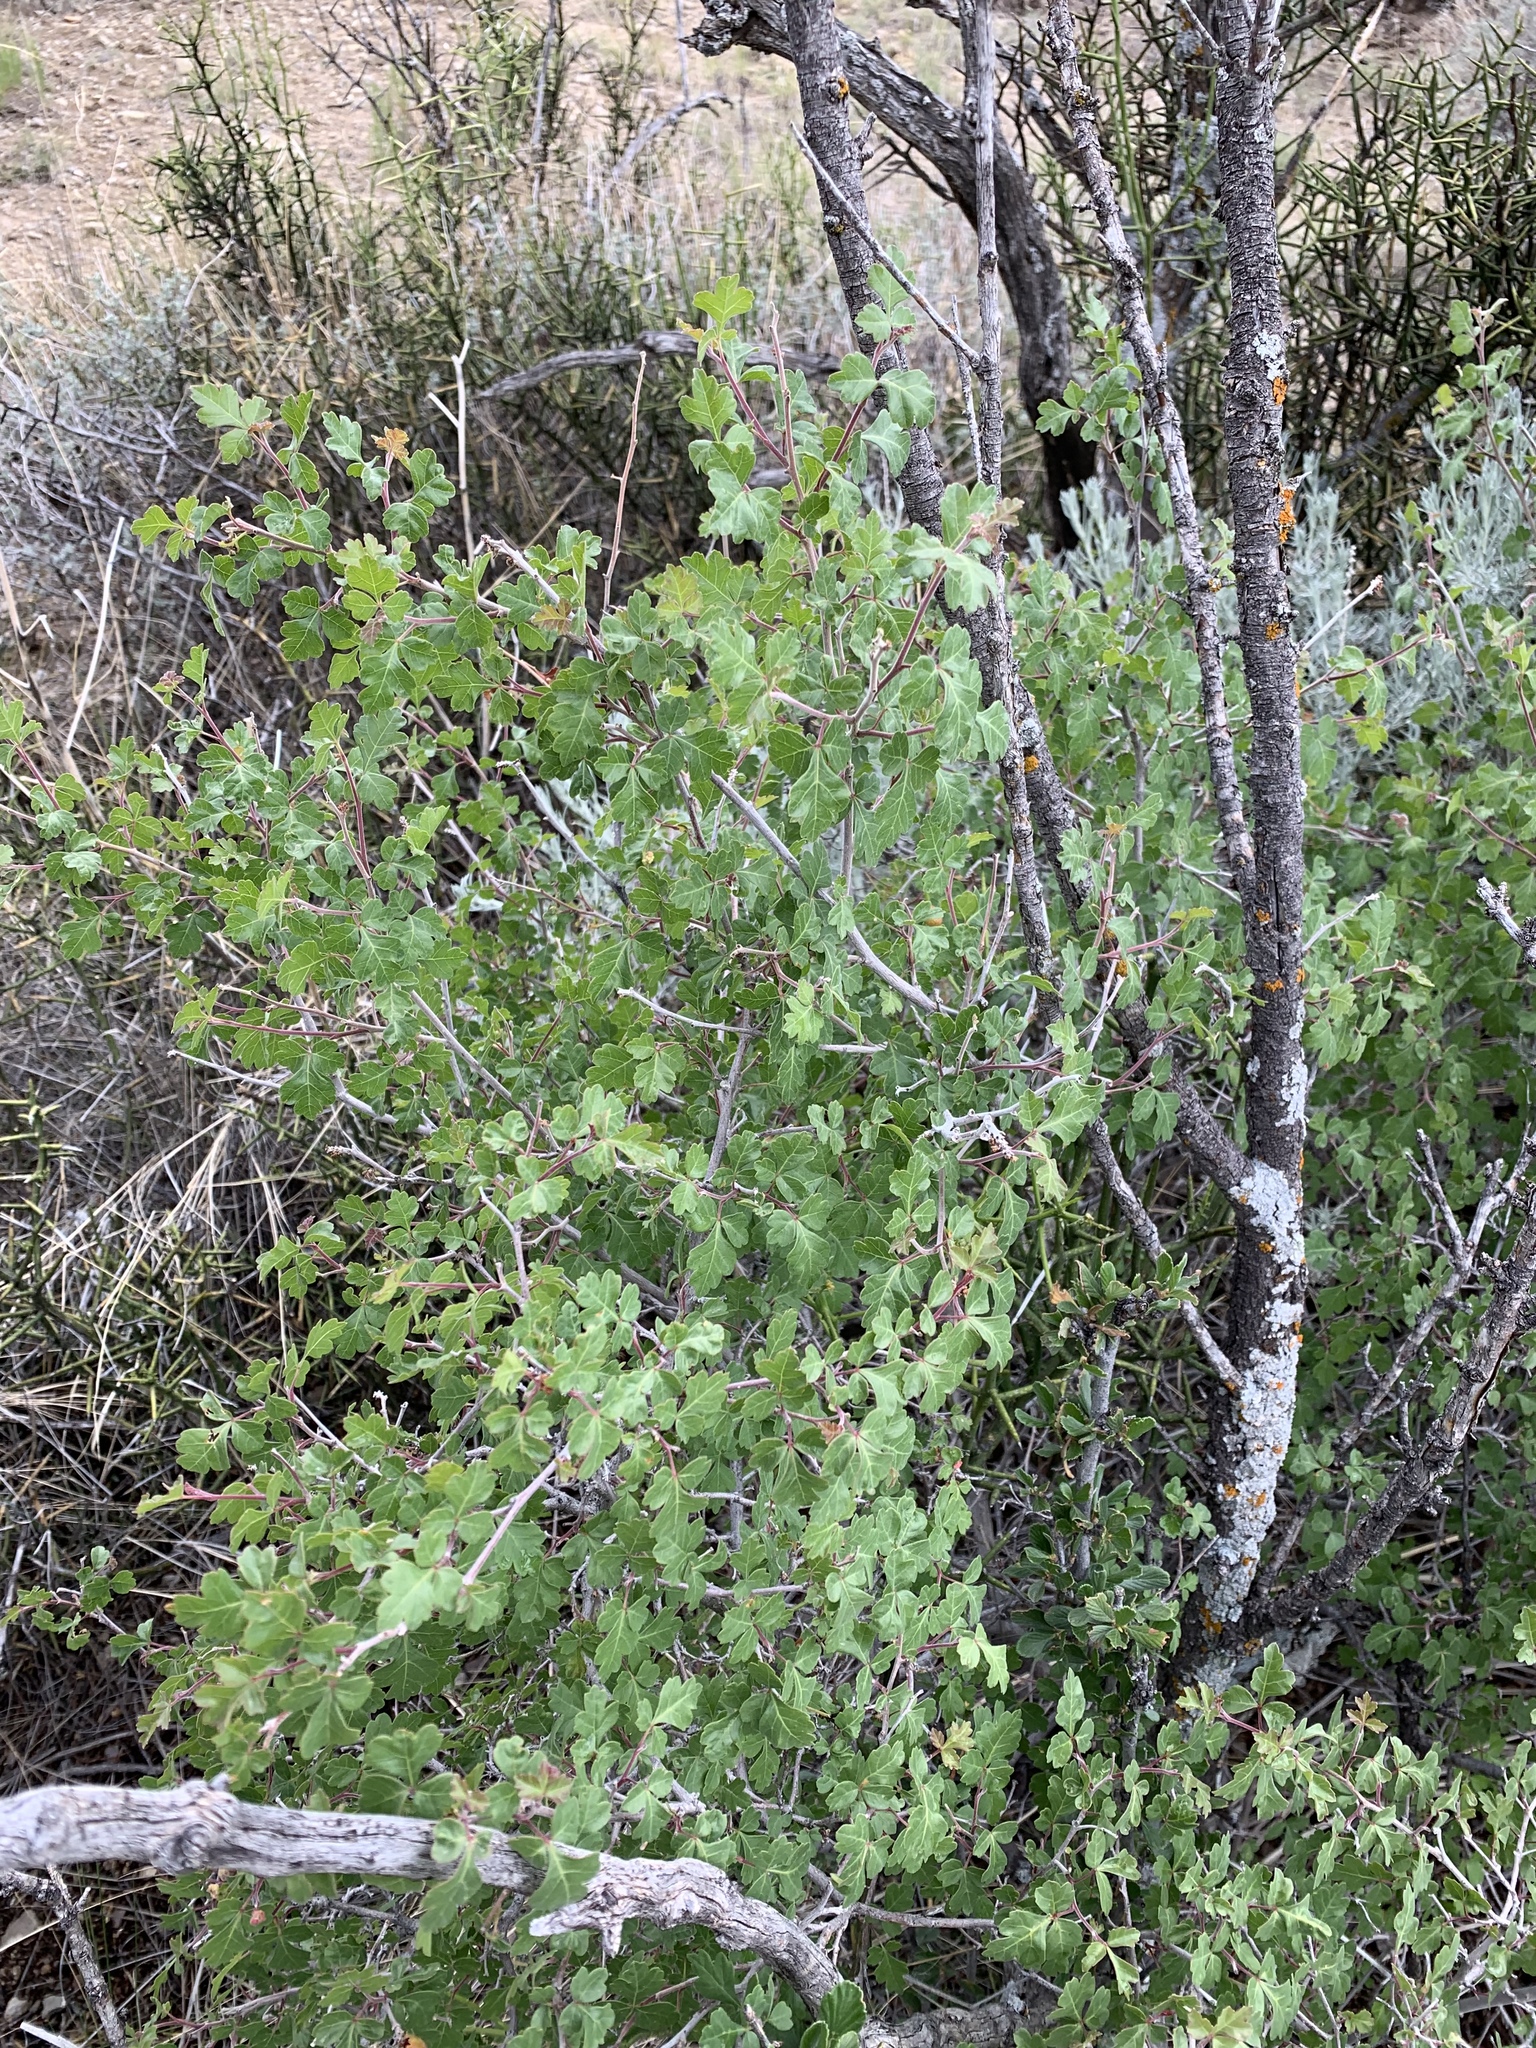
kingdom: Plantae
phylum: Tracheophyta
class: Magnoliopsida
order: Sapindales
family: Anacardiaceae
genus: Rhus
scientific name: Rhus aromatica
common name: Aromatic sumac
